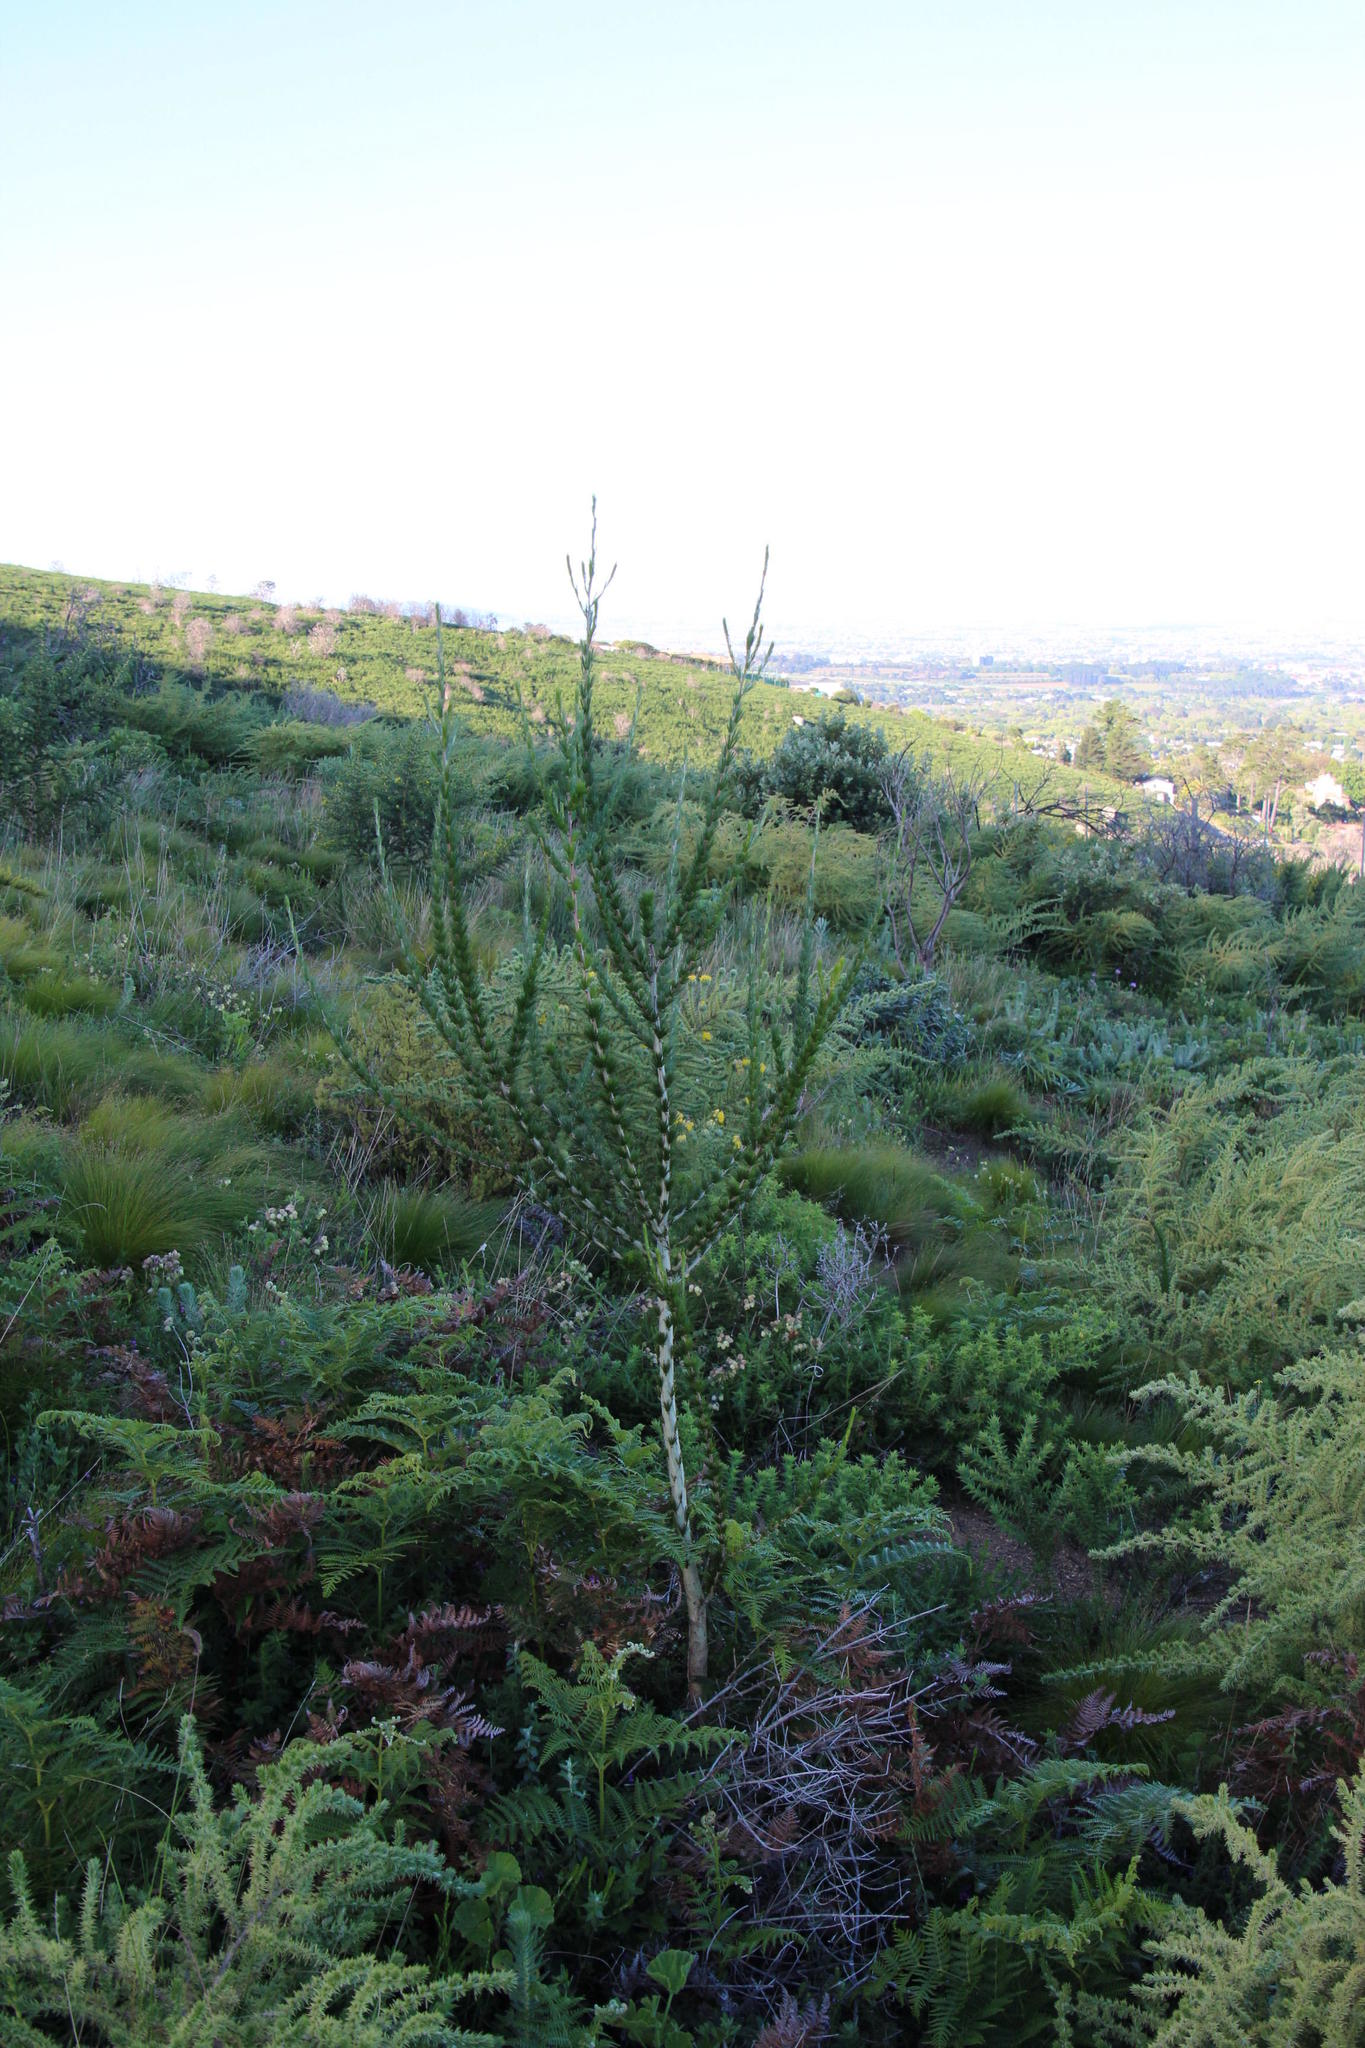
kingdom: Plantae
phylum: Tracheophyta
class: Magnoliopsida
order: Fabales
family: Fabaceae
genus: Aspalathus
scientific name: Aspalathus macrantha
